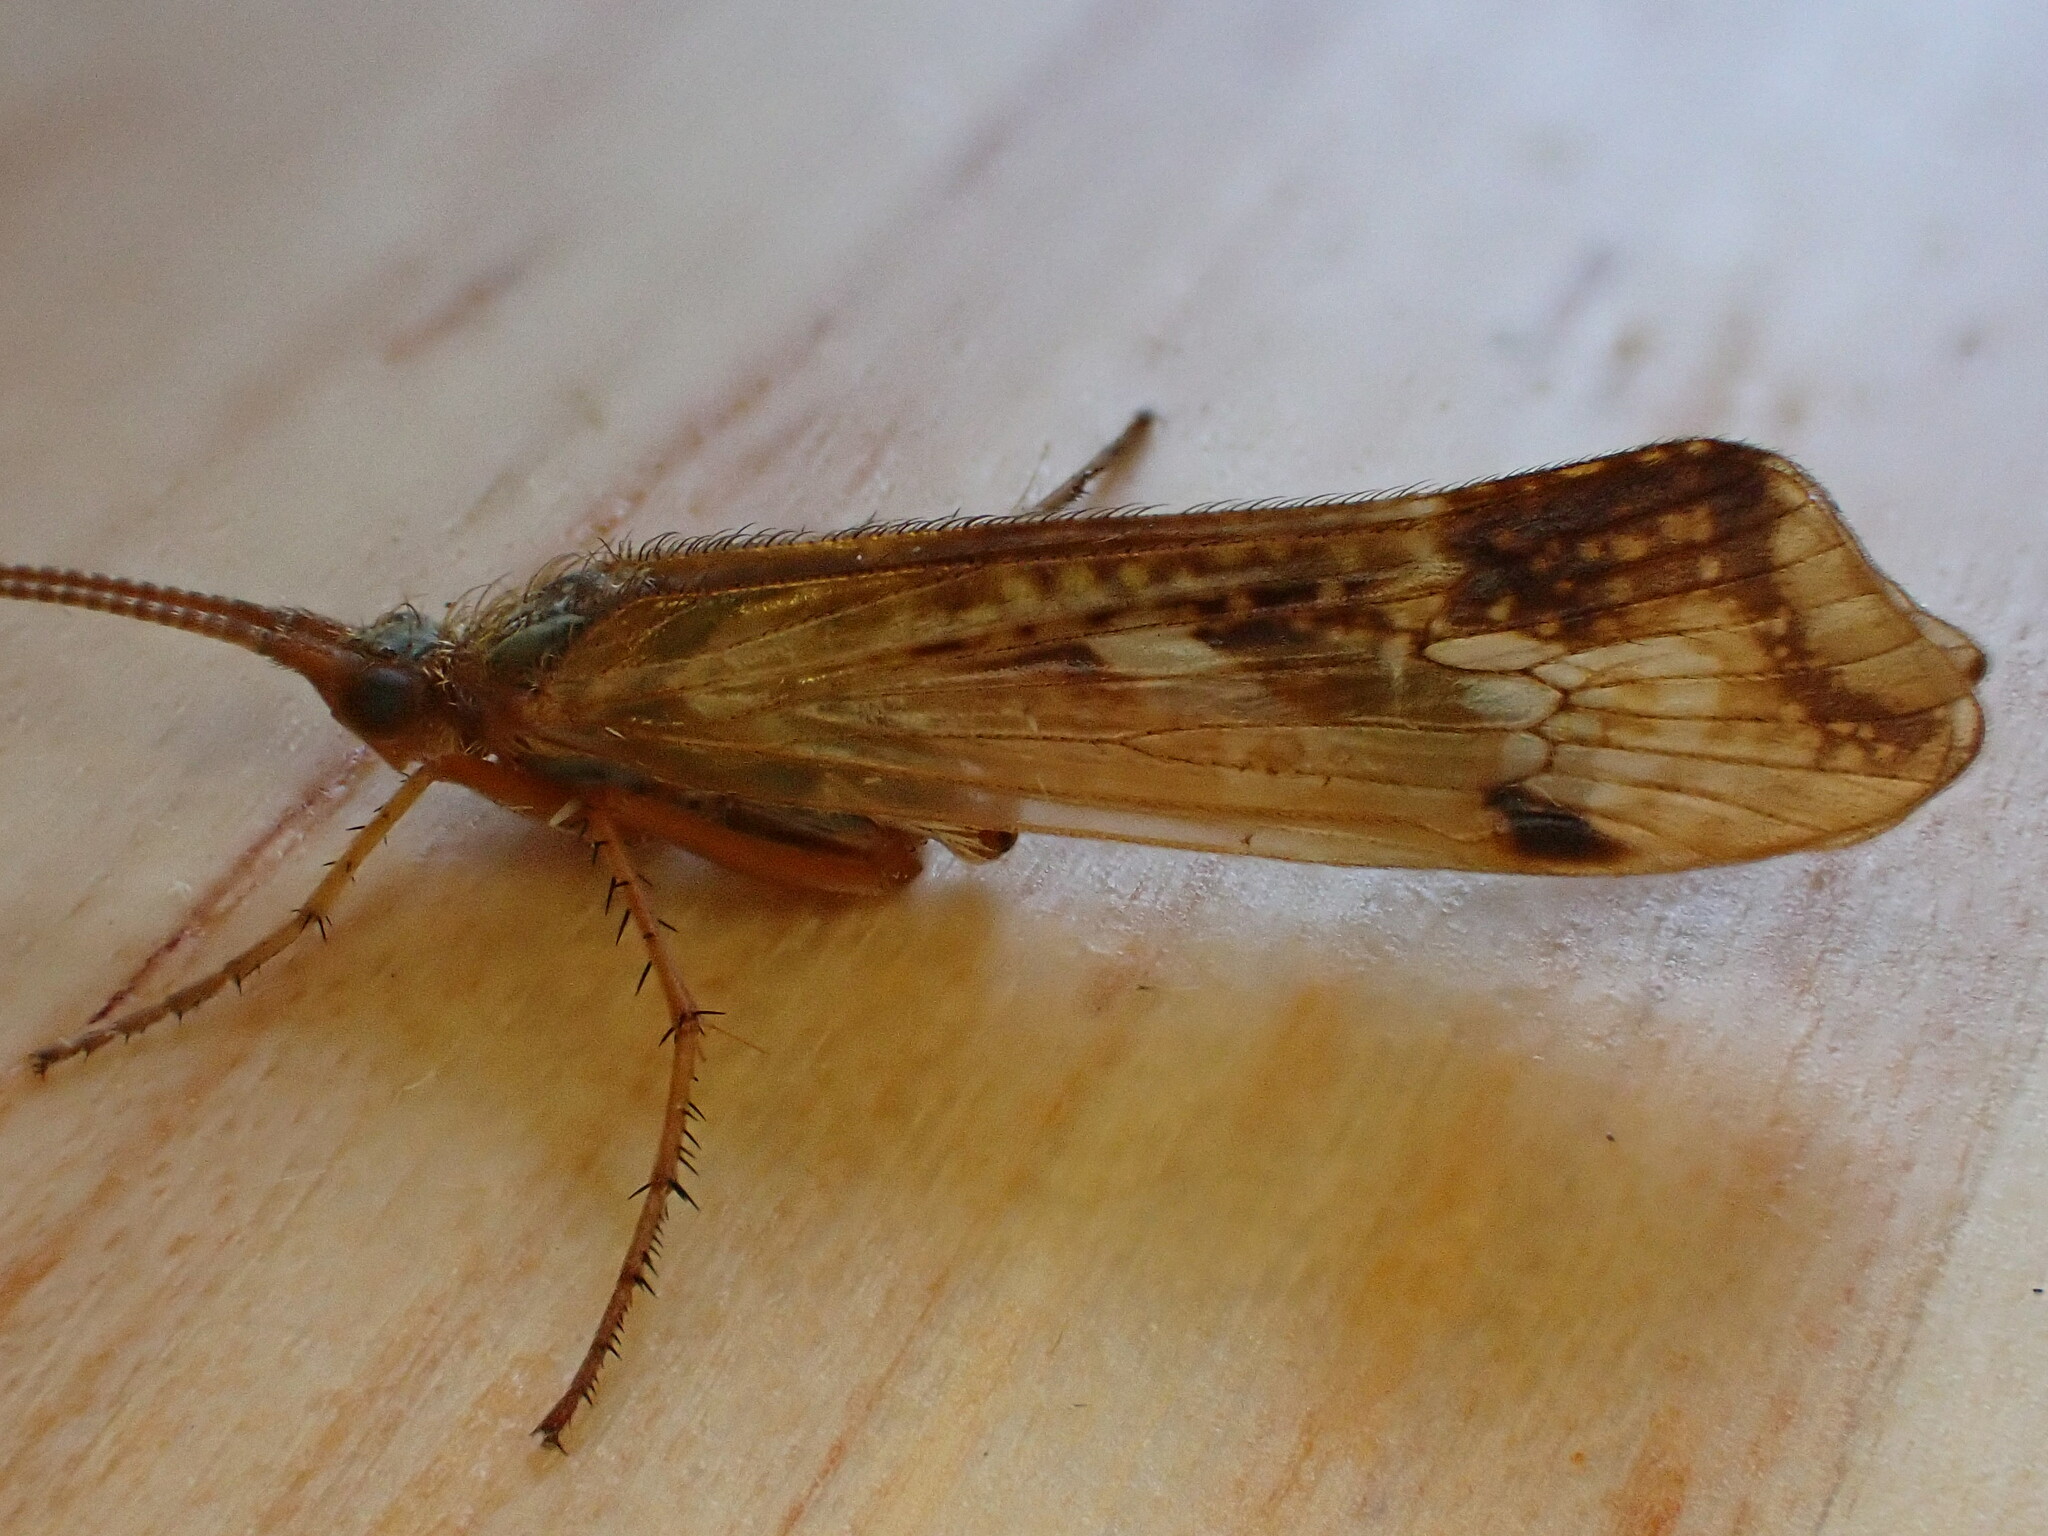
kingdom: Animalia
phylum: Arthropoda
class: Insecta
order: Trichoptera
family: Limnephilidae
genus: Limnephilus
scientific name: Limnephilus lunatus
